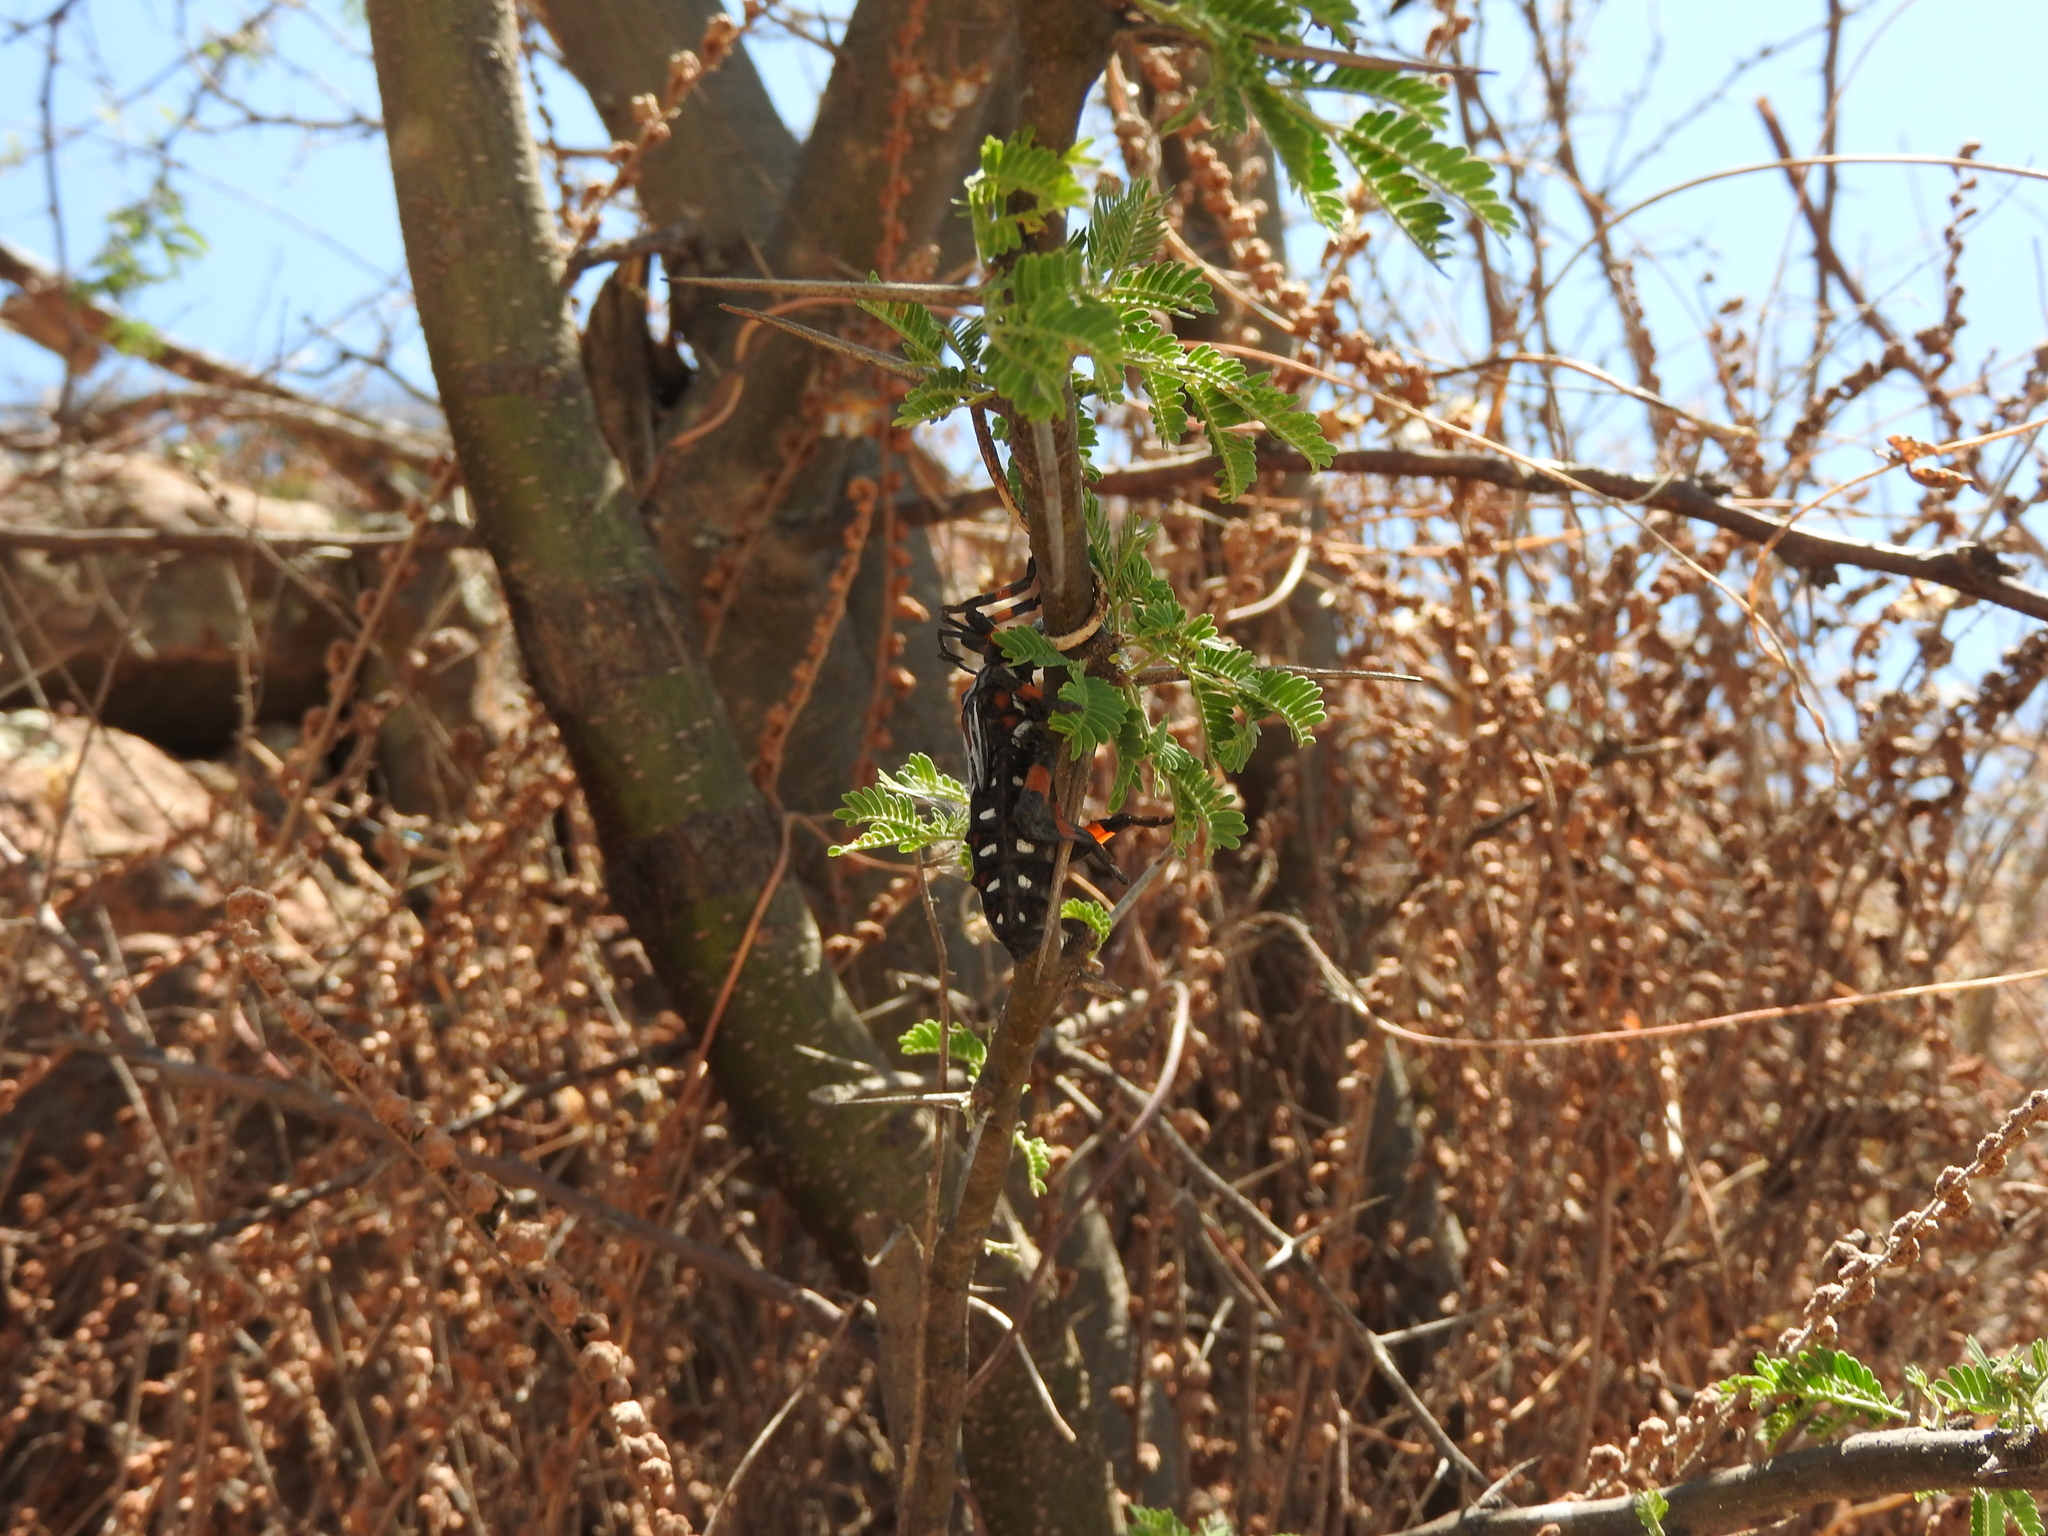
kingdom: Animalia
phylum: Arthropoda
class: Insecta
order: Hemiptera
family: Coreidae
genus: Thasus
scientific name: Thasus
